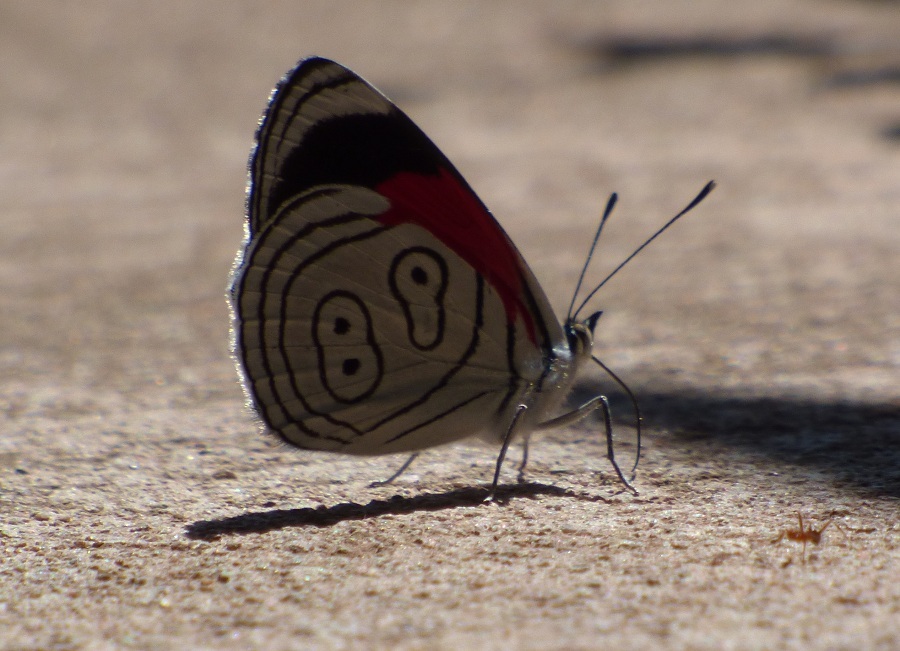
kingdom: Animalia
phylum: Arthropoda
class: Insecta
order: Lepidoptera
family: Nymphalidae
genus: Diaethria
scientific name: Diaethria neglecta
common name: Neglected eighty-eight
